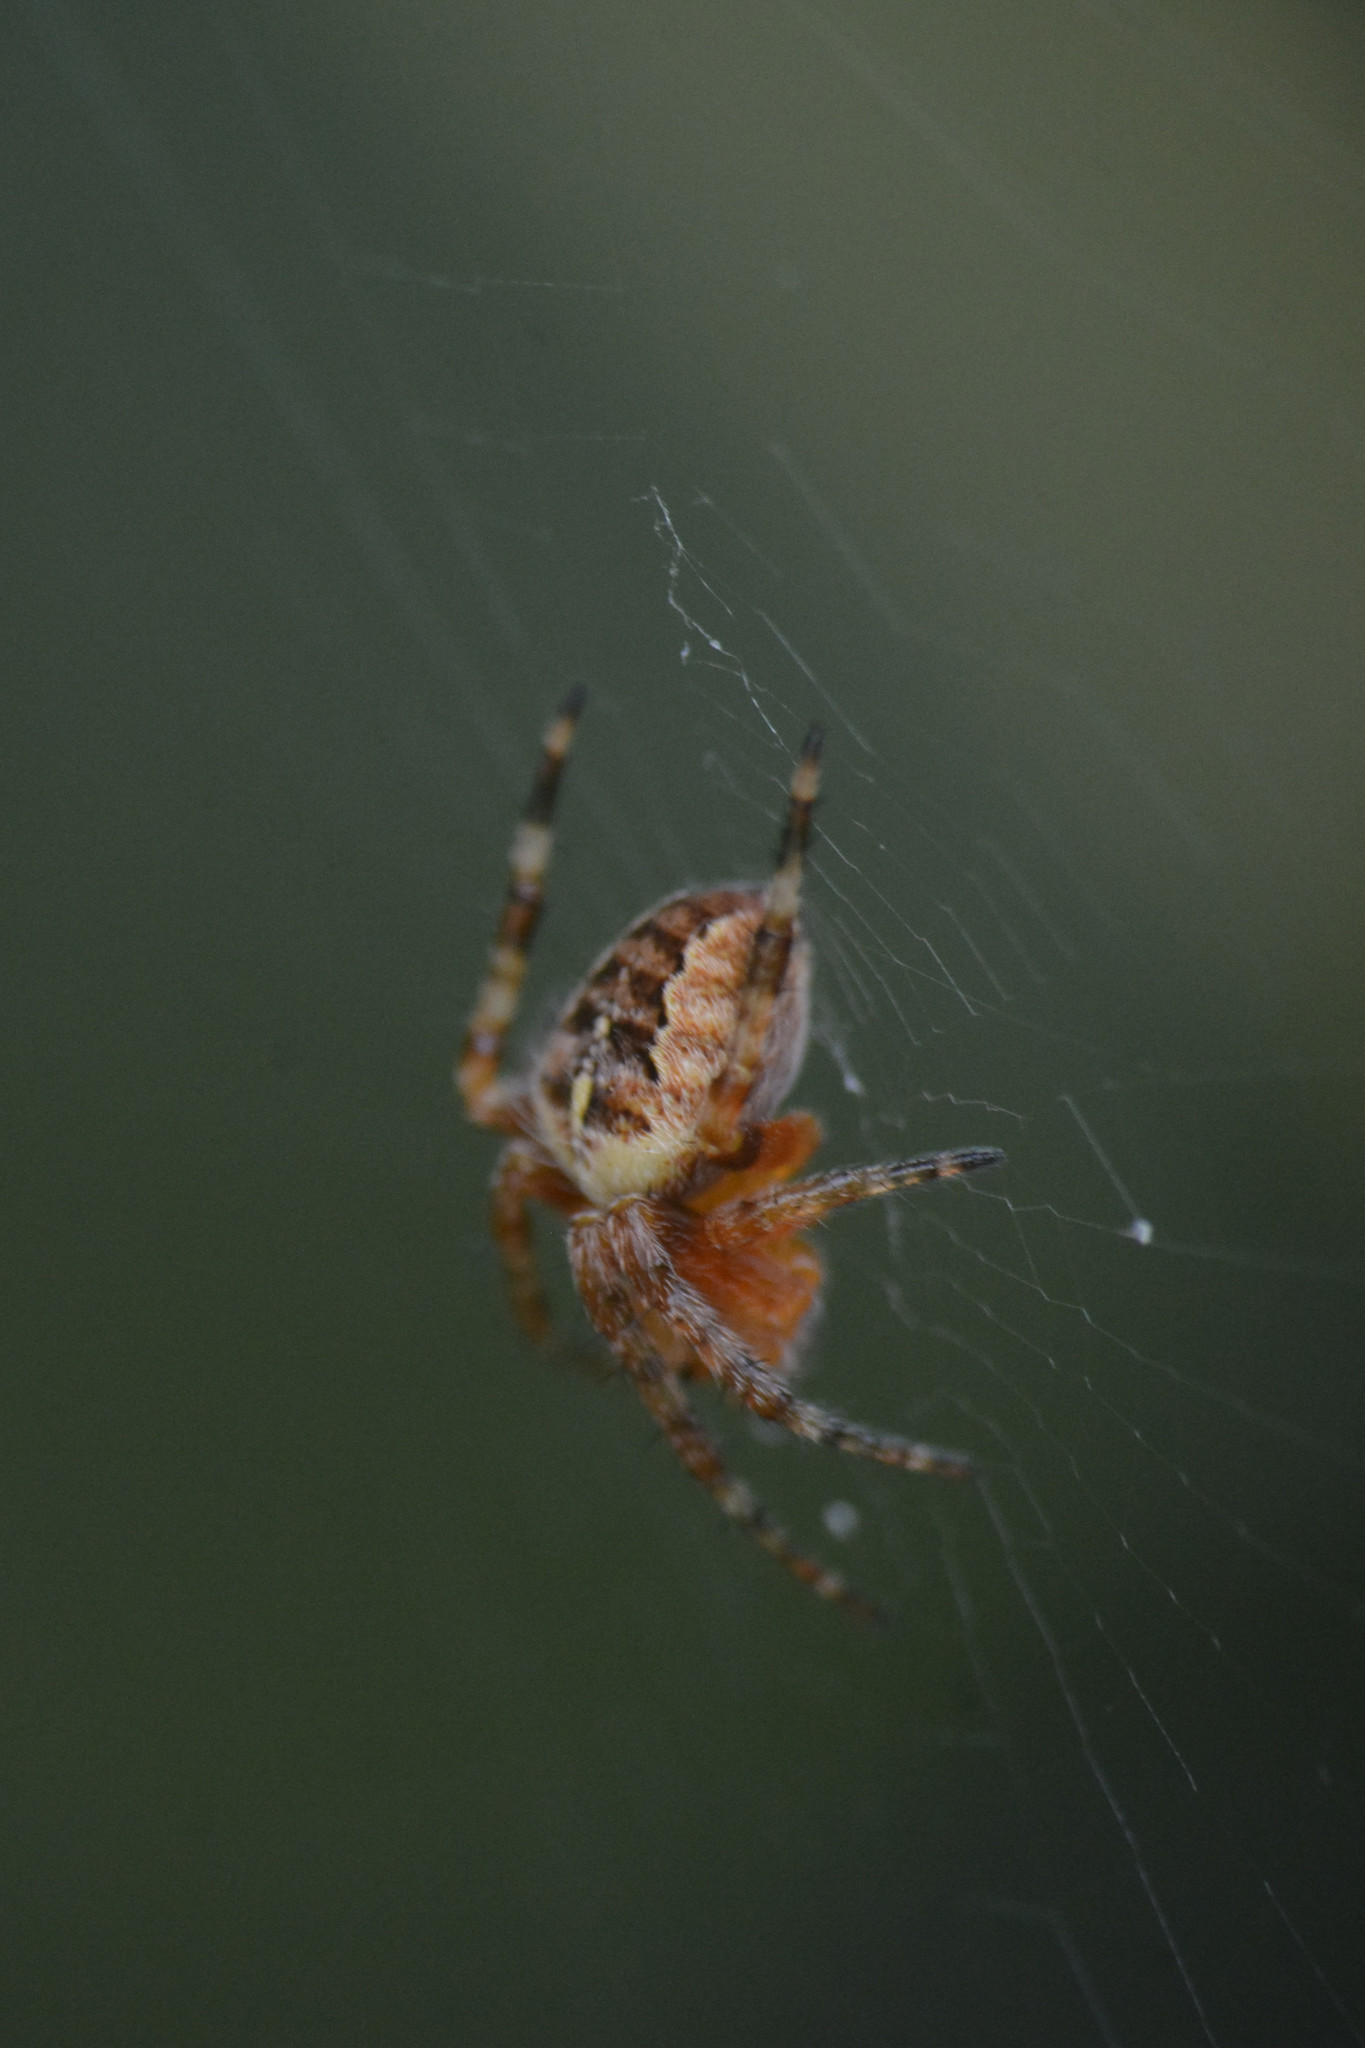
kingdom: Animalia
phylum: Arthropoda
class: Arachnida
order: Araneae
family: Araneidae
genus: Araneus
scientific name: Araneus diadematus
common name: Cross orbweaver
